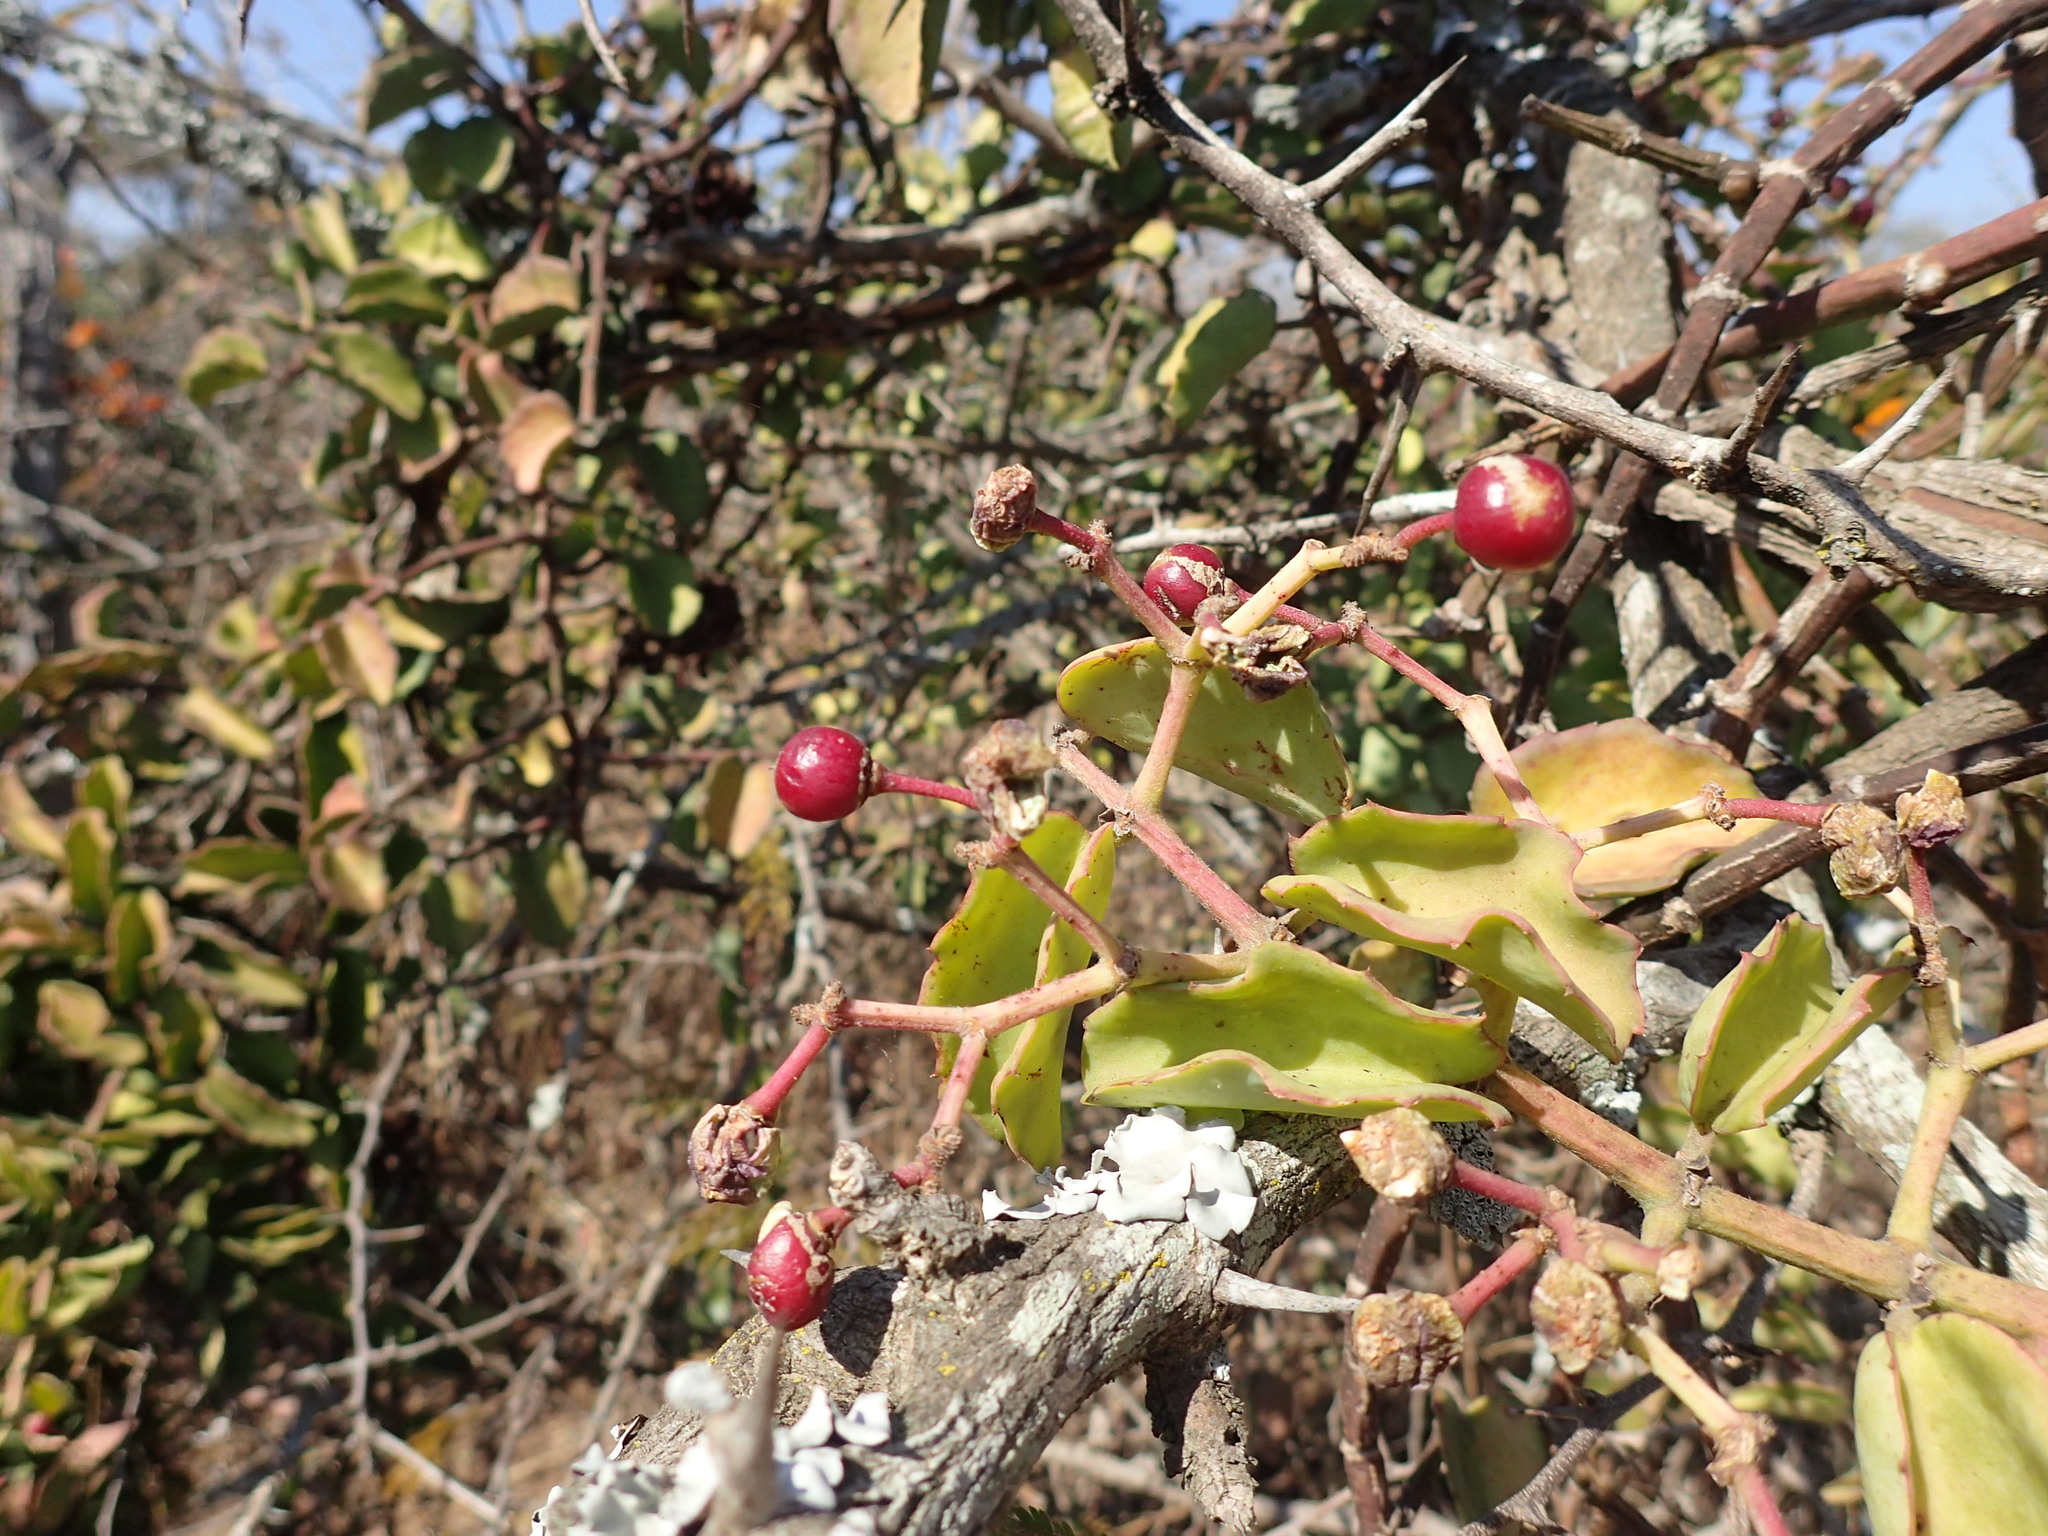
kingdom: Plantae
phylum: Tracheophyta
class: Magnoliopsida
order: Vitales
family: Vitaceae
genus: Cissus
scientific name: Cissus rotundifolia
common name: Arabian wax cissus
